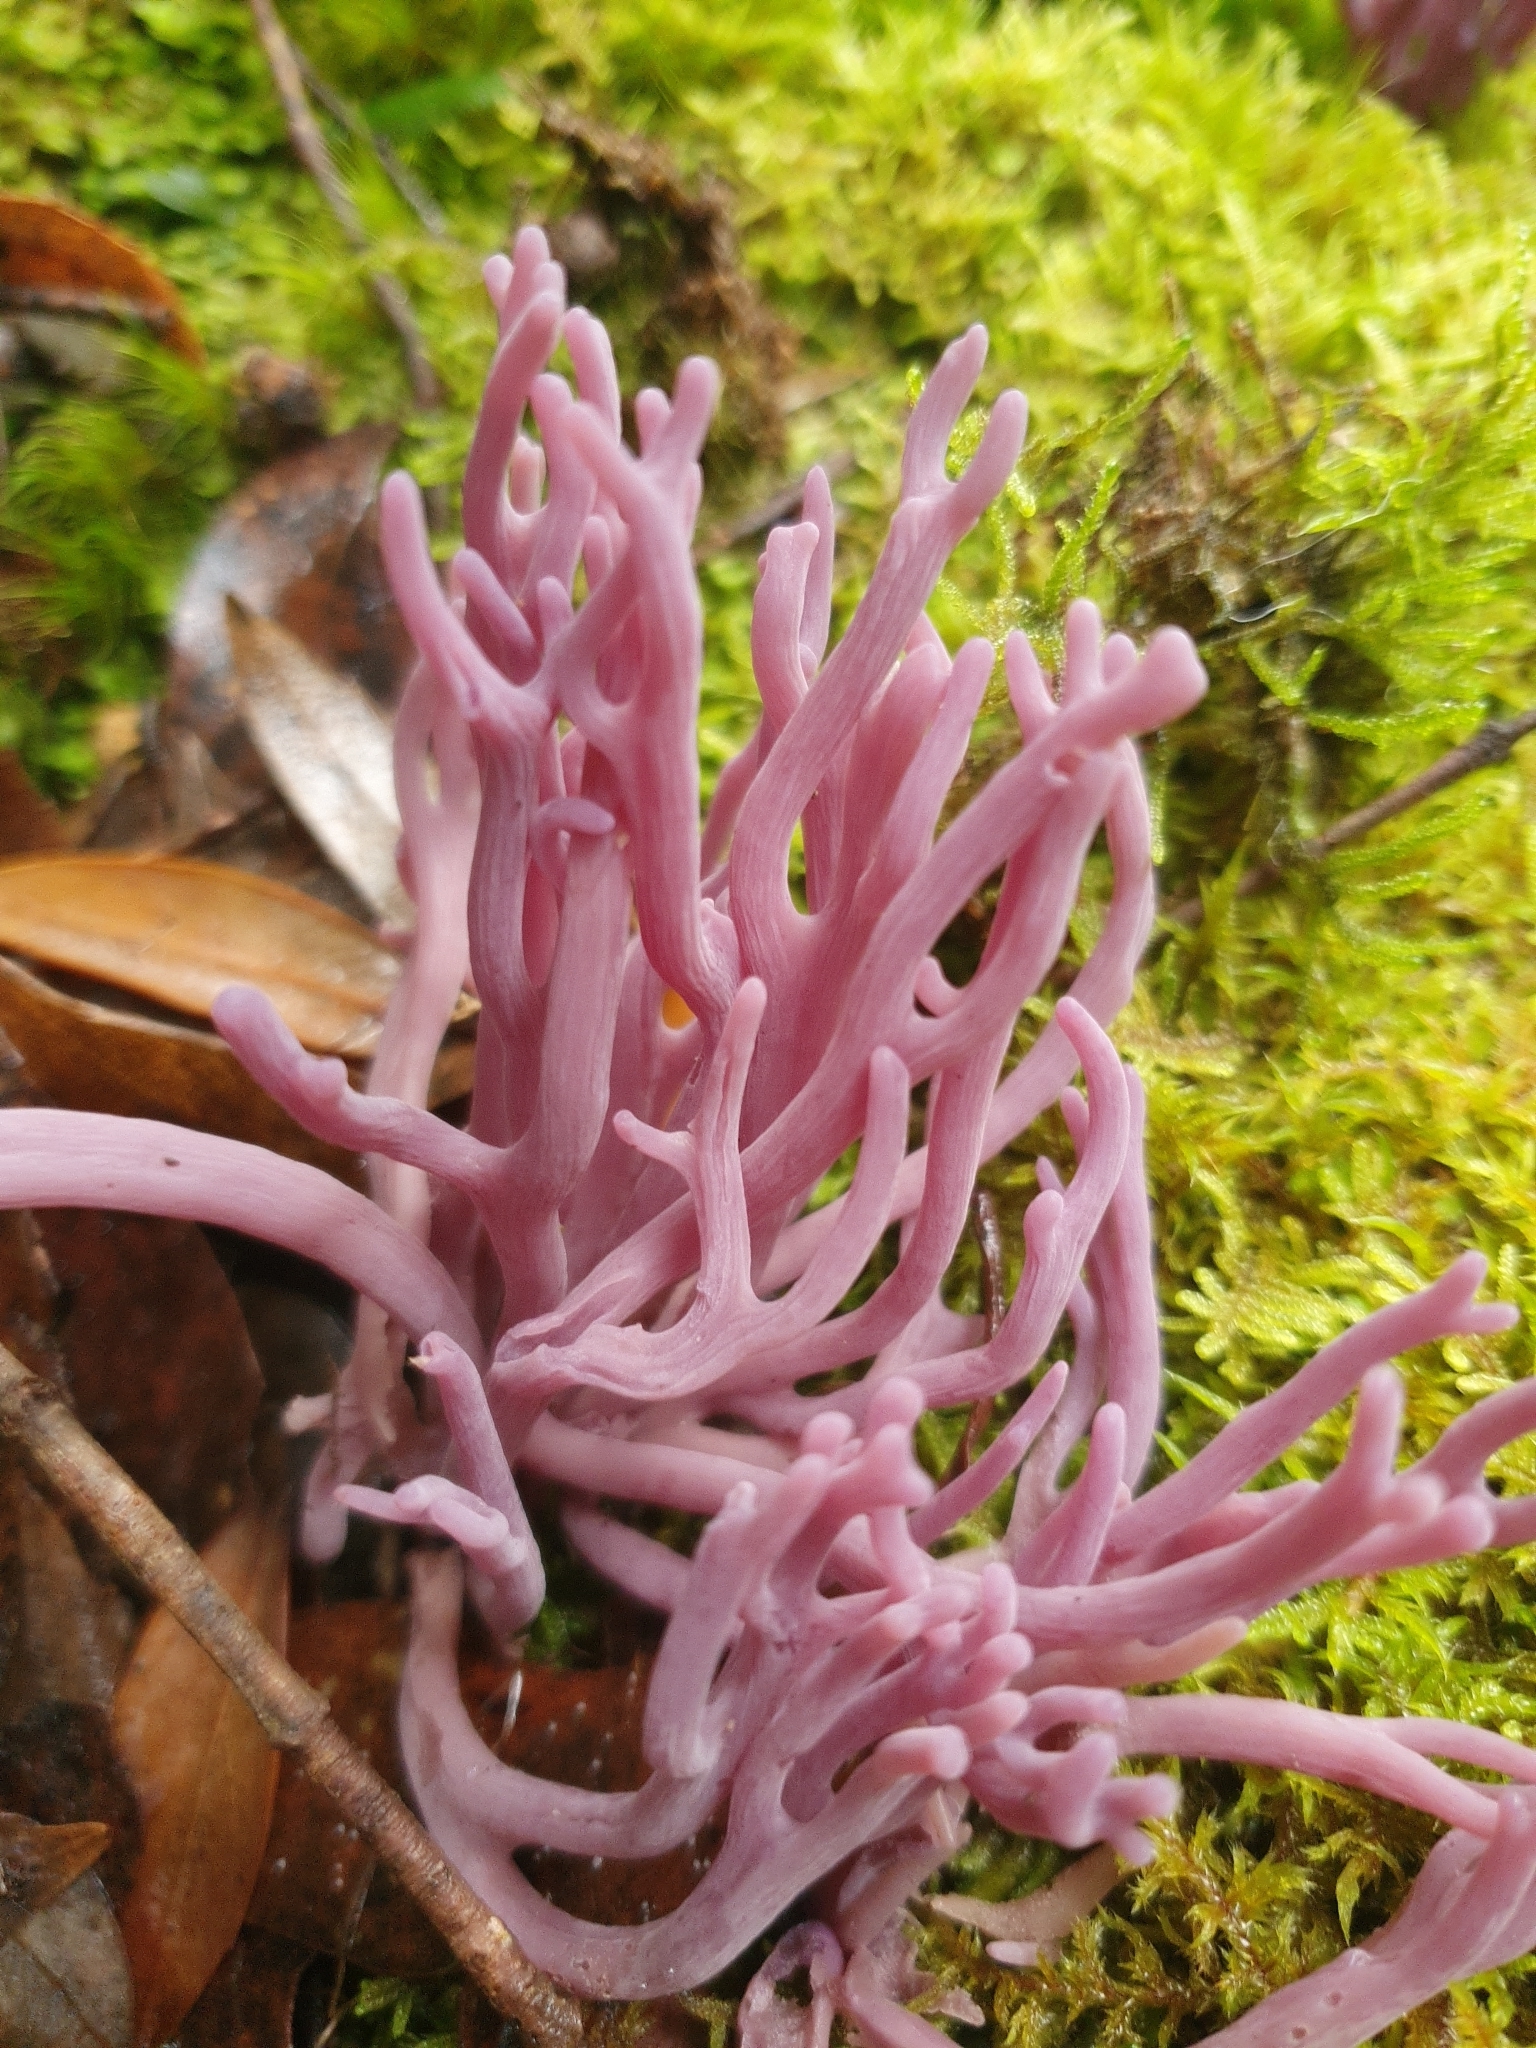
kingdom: Fungi
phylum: Basidiomycota
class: Agaricomycetes
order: Agaricales
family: Clavariaceae
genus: Clavaria
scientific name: Clavaria zollingeri
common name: Violet coral
